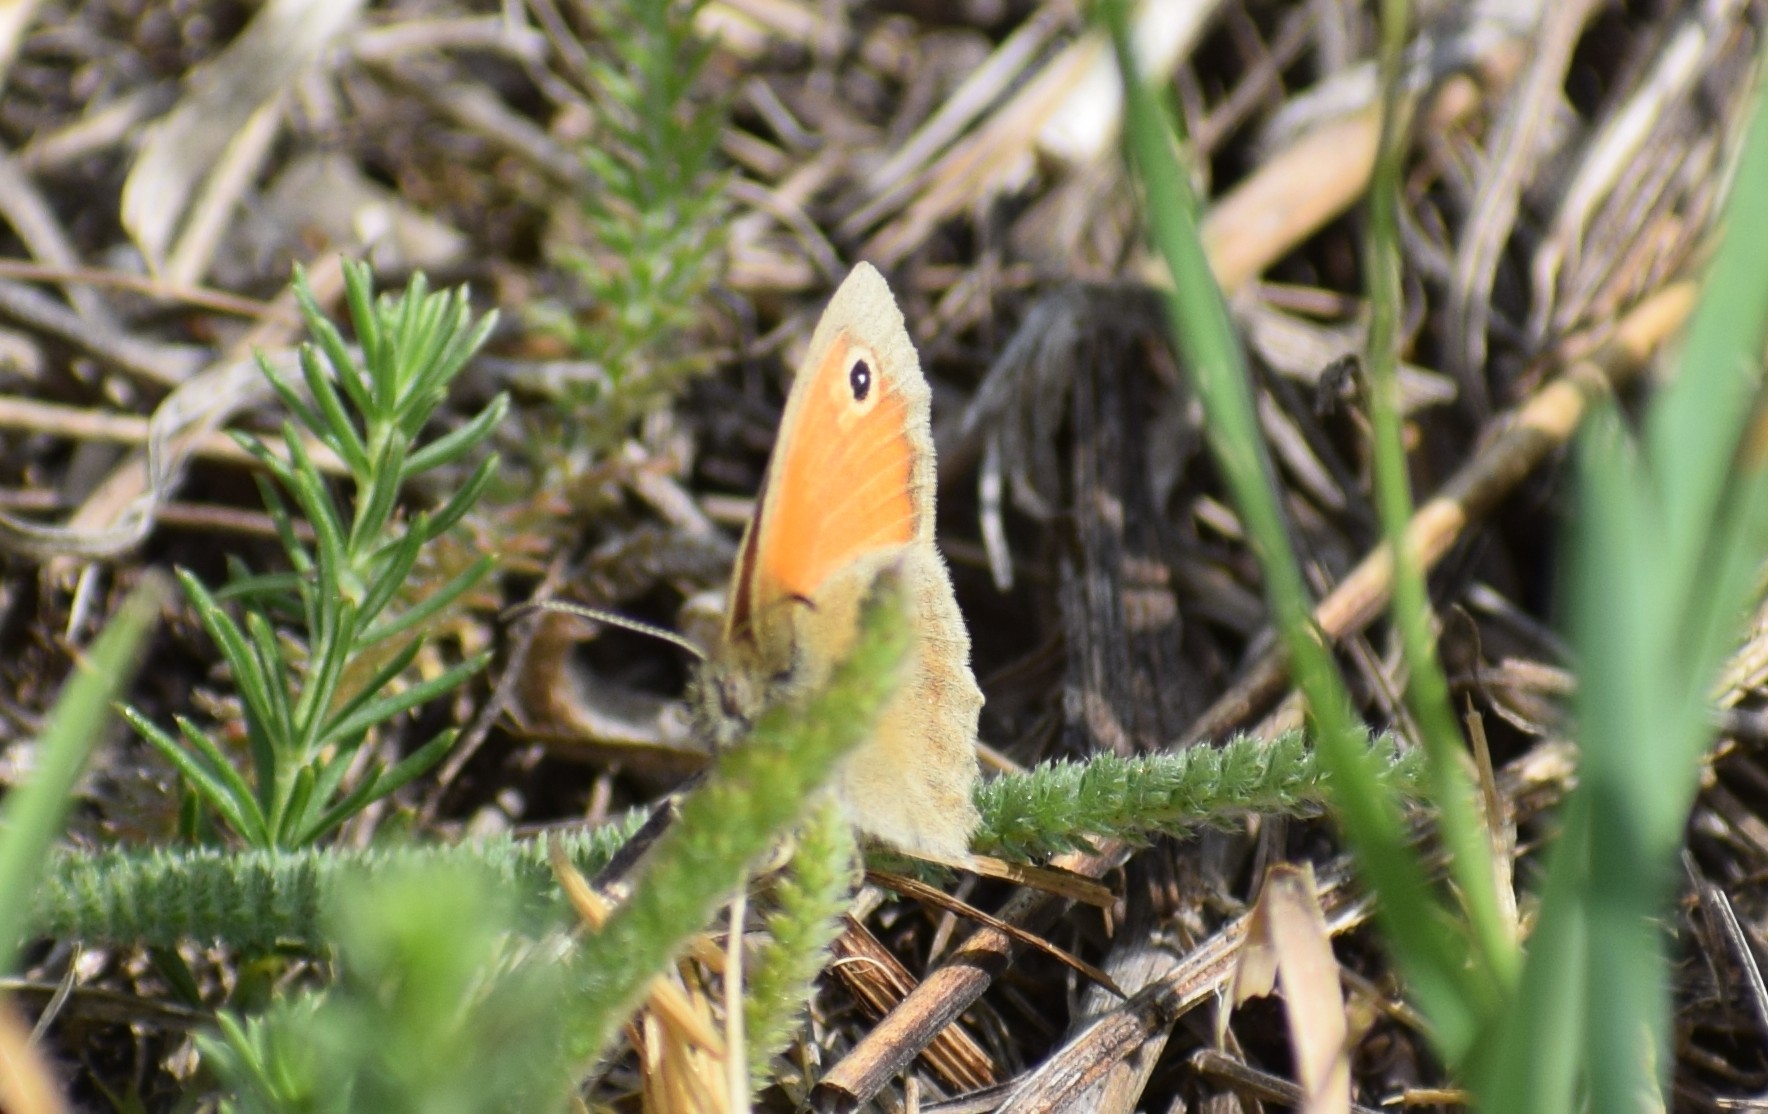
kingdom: Animalia
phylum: Arthropoda
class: Insecta
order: Lepidoptera
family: Nymphalidae
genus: Coenonympha
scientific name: Coenonympha pamphilus
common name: Small heath
